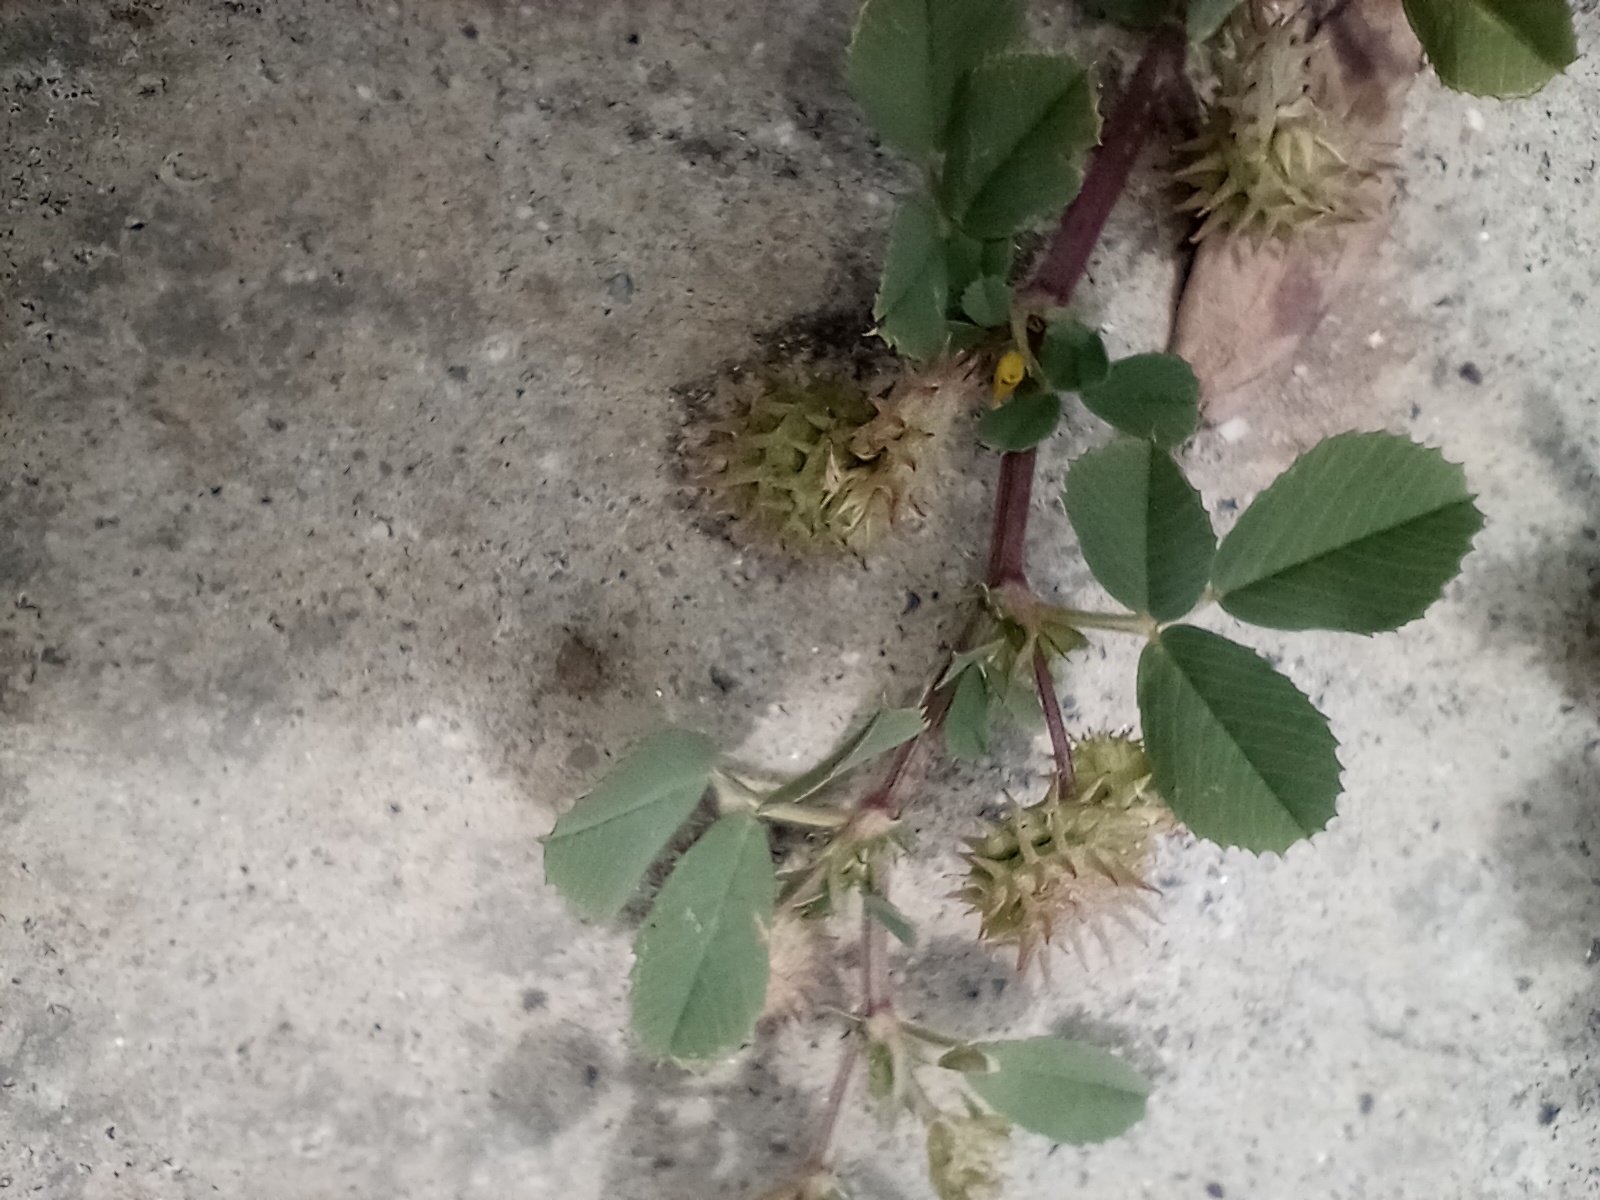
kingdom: Plantae
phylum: Tracheophyta
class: Magnoliopsida
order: Fabales
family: Fabaceae
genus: Medicago
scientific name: Medicago polymorpha
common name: Burclover
